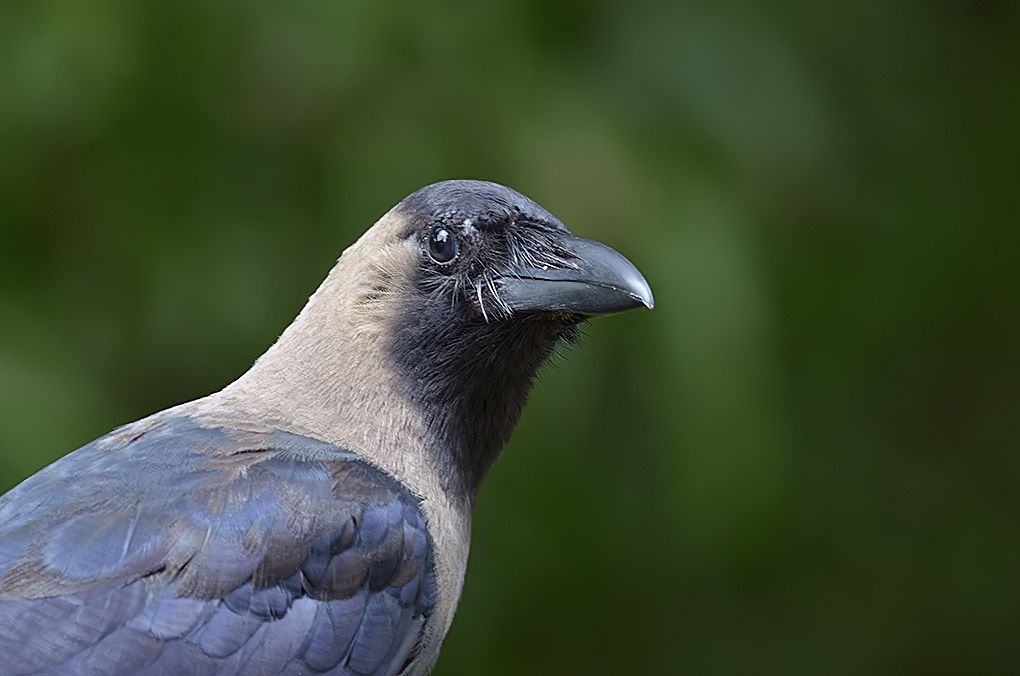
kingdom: Animalia
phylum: Chordata
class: Aves
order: Passeriformes
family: Corvidae
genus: Corvus
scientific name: Corvus splendens
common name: House crow
